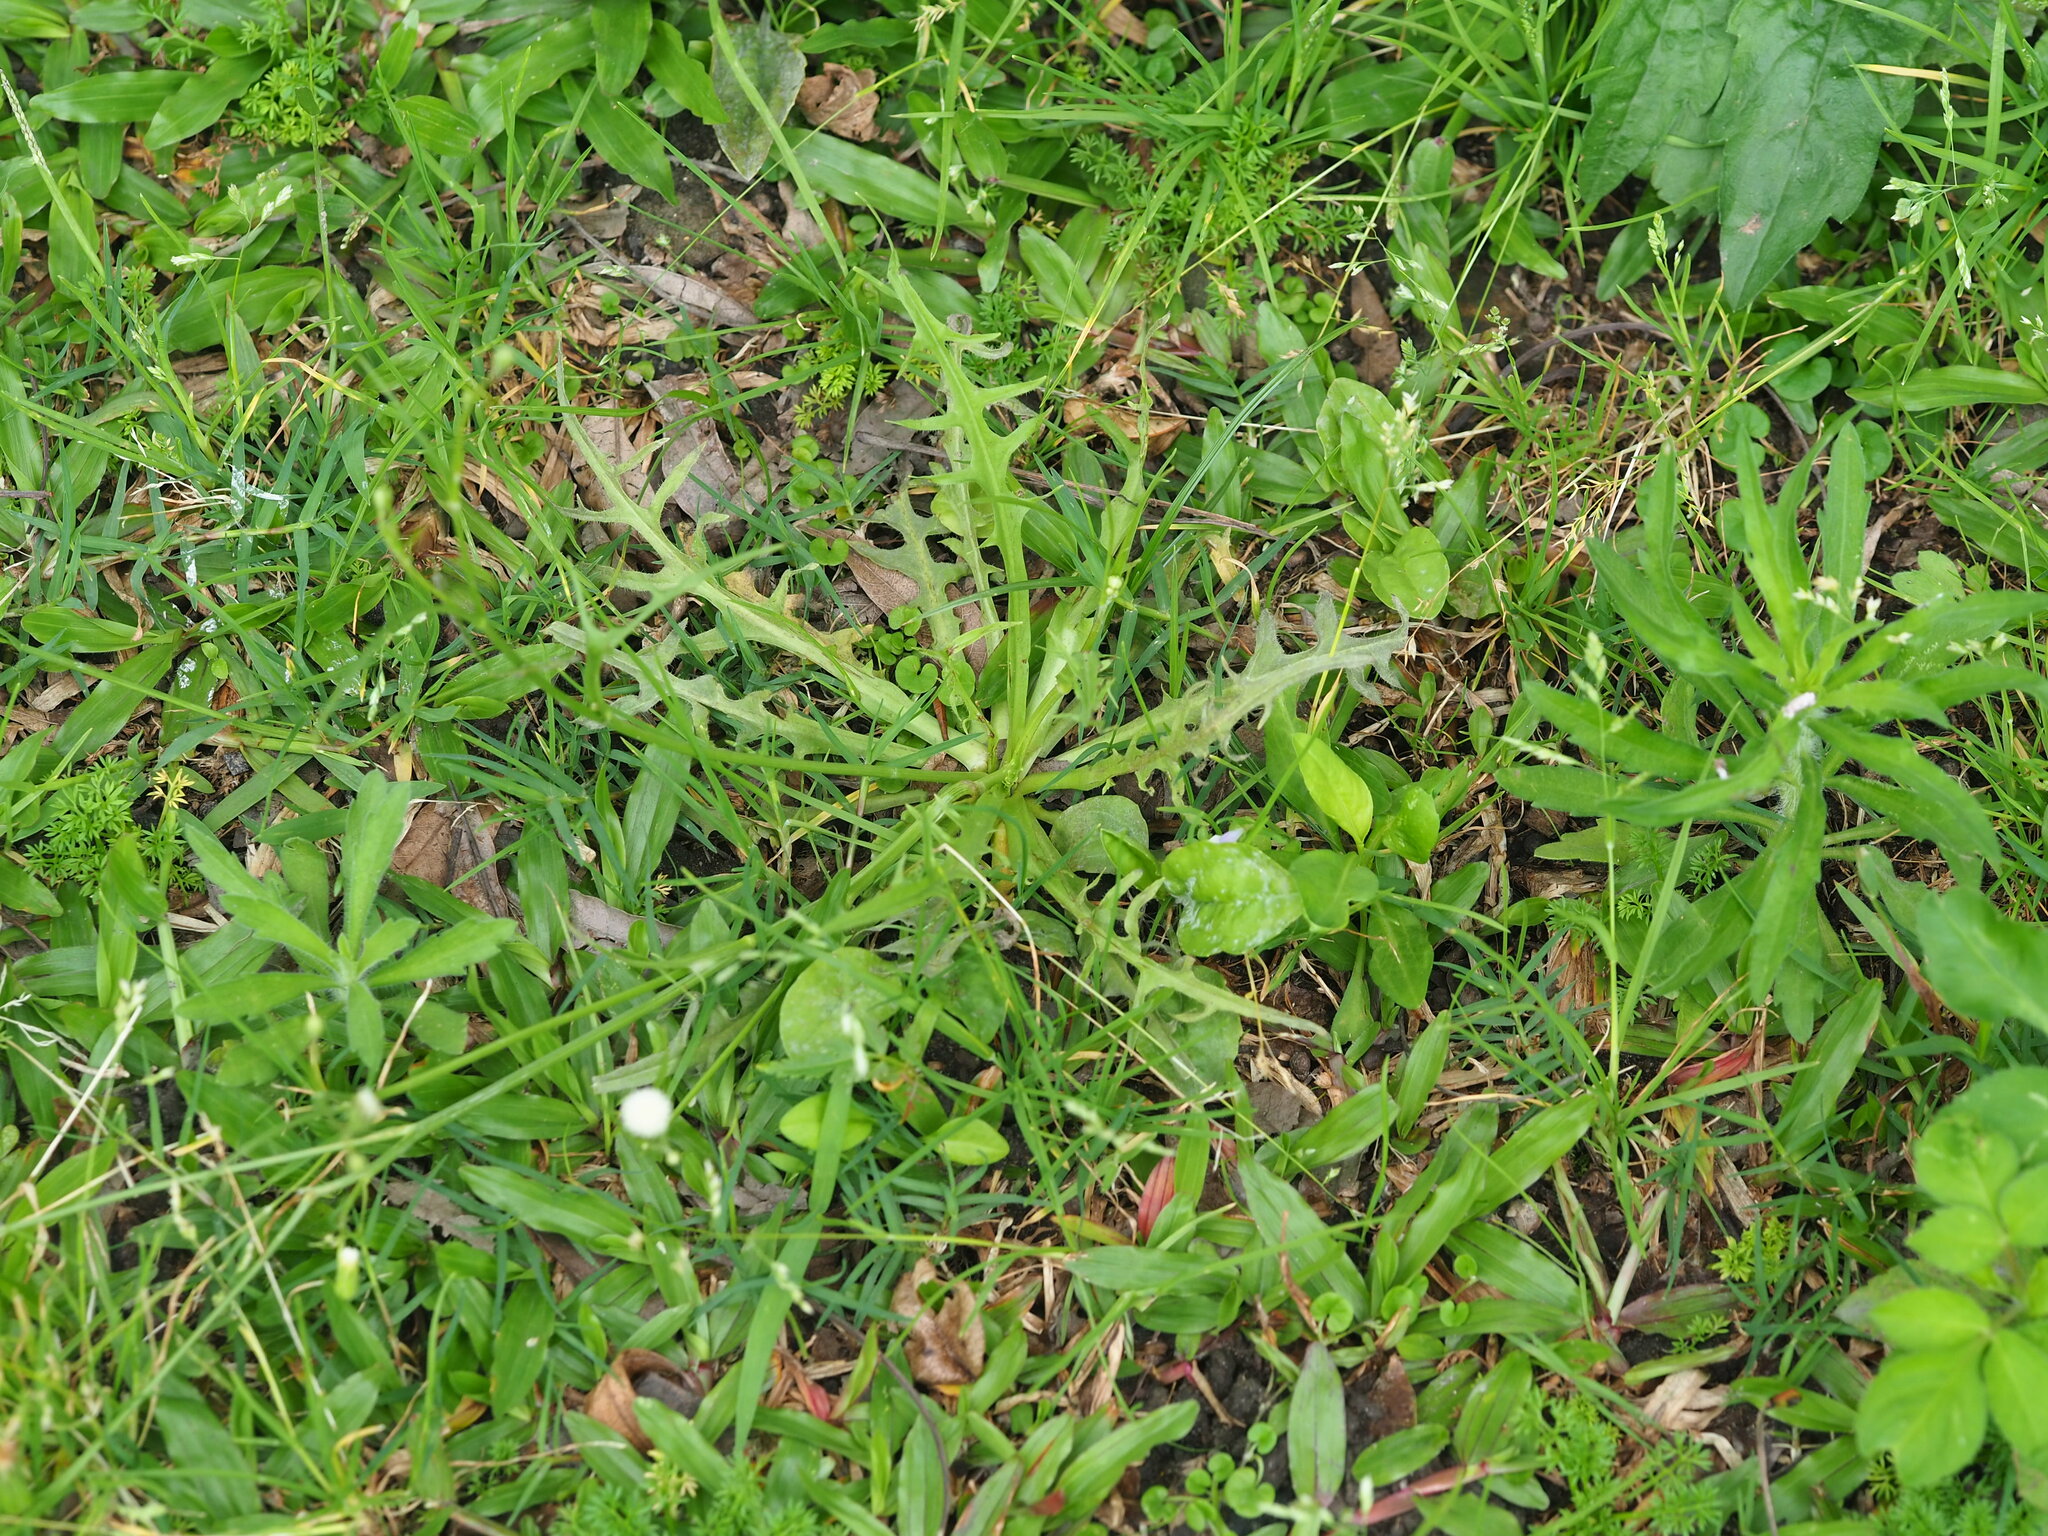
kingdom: Plantae
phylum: Tracheophyta
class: Magnoliopsida
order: Asterales
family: Asteraceae
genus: Hypochaeris
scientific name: Hypochaeris albiflora
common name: White flatweed
